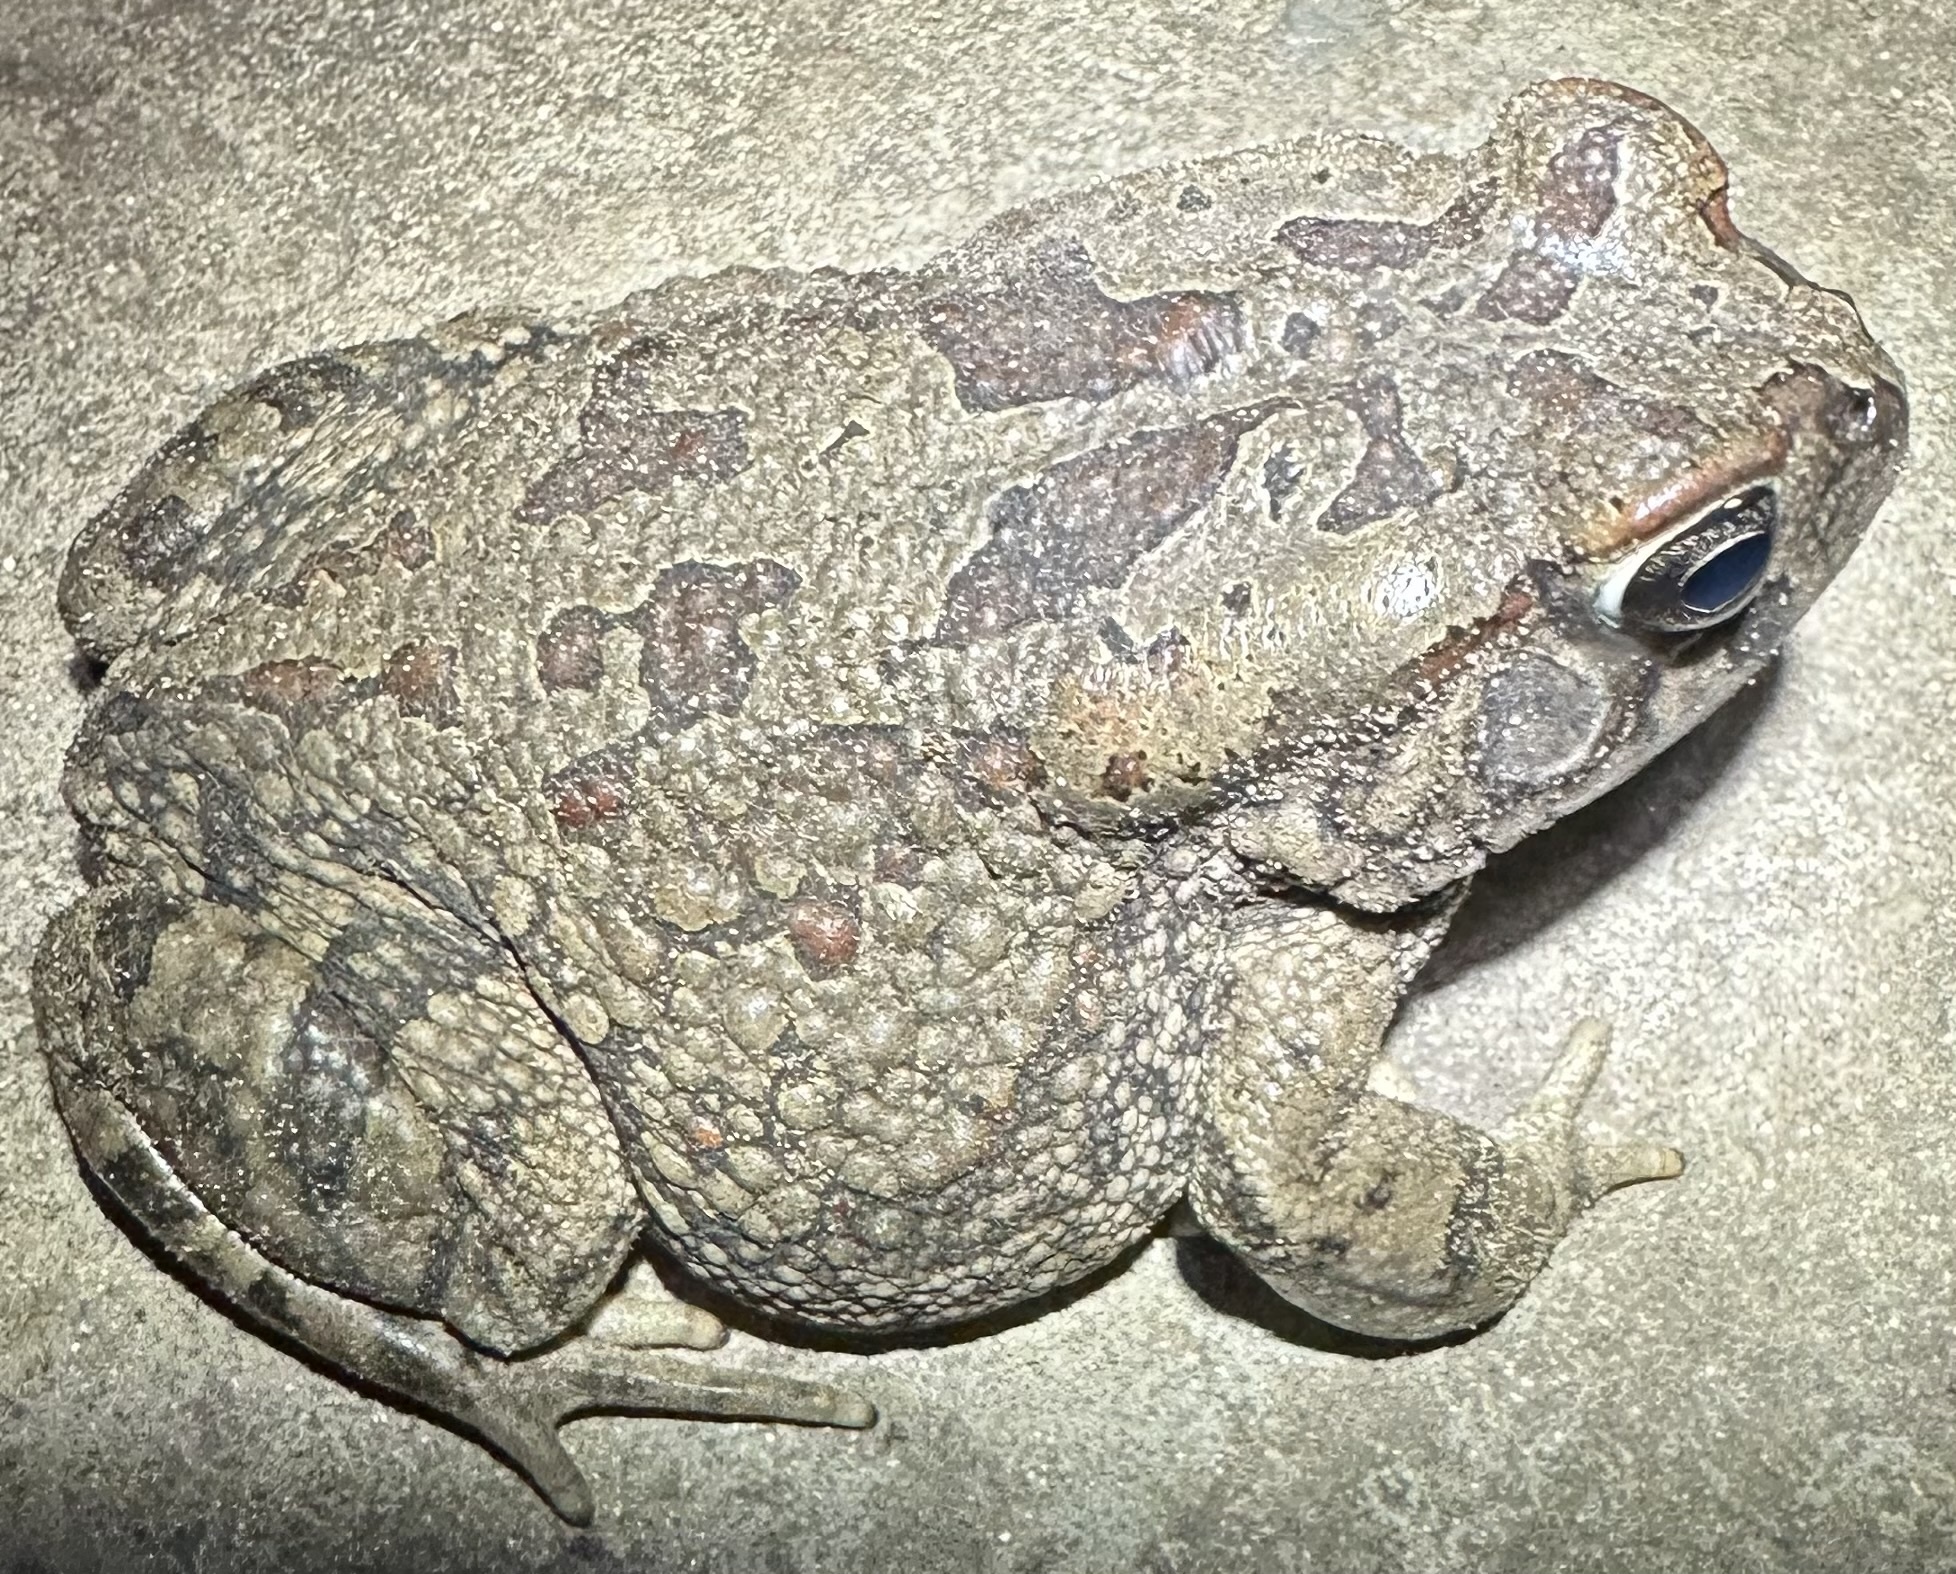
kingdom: Animalia
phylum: Chordata
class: Amphibia
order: Anura
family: Bufonidae
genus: Sclerophrys
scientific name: Sclerophrys poweri
